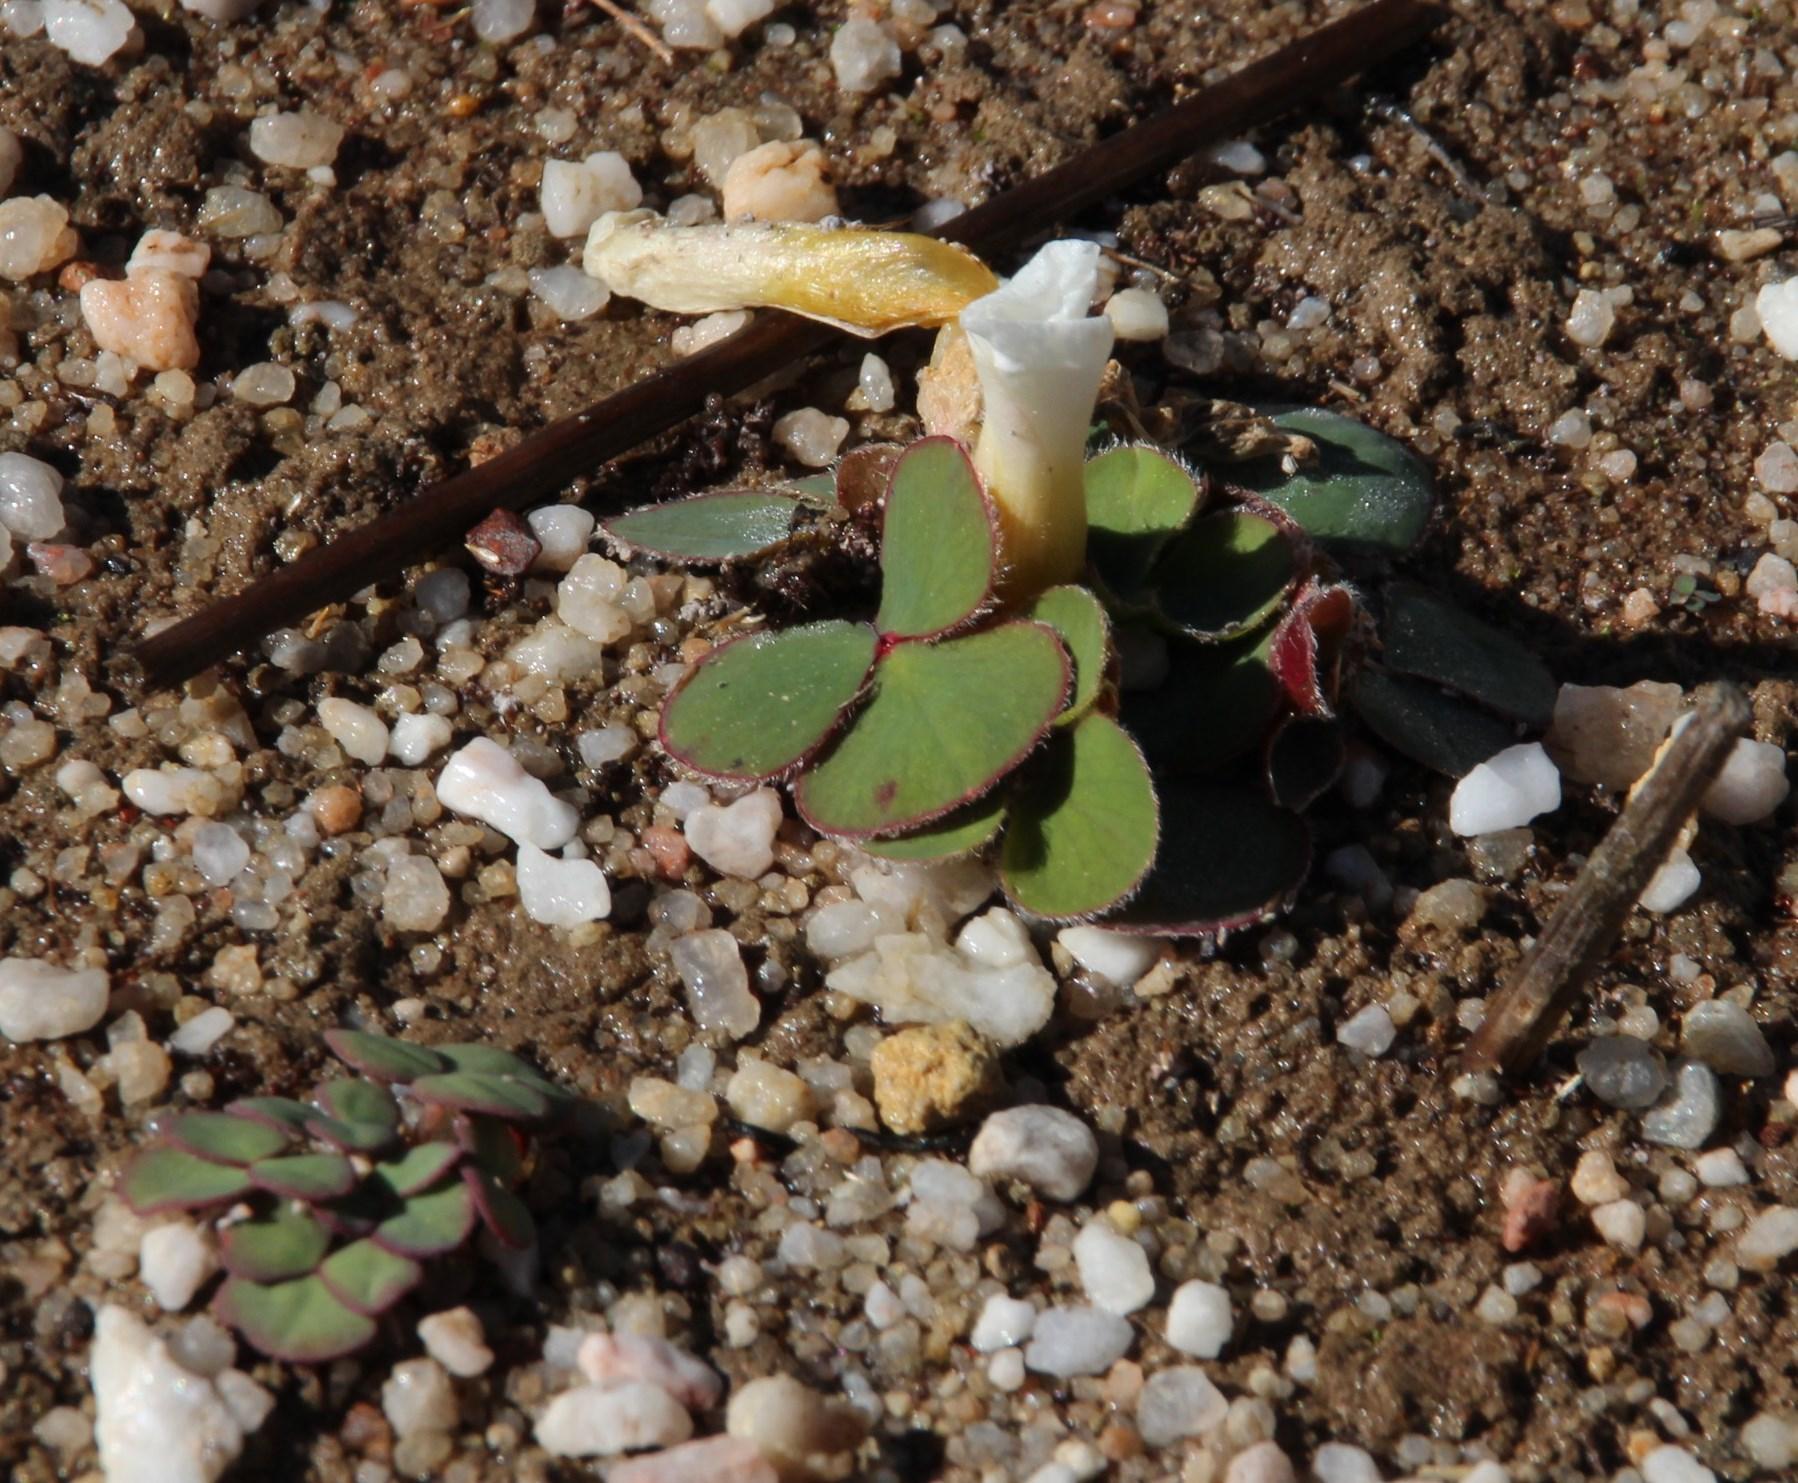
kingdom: Plantae
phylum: Tracheophyta
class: Magnoliopsida
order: Oxalidales
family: Oxalidaceae
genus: Oxalis
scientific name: Oxalis purpurea
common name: Purple woodsorrel
